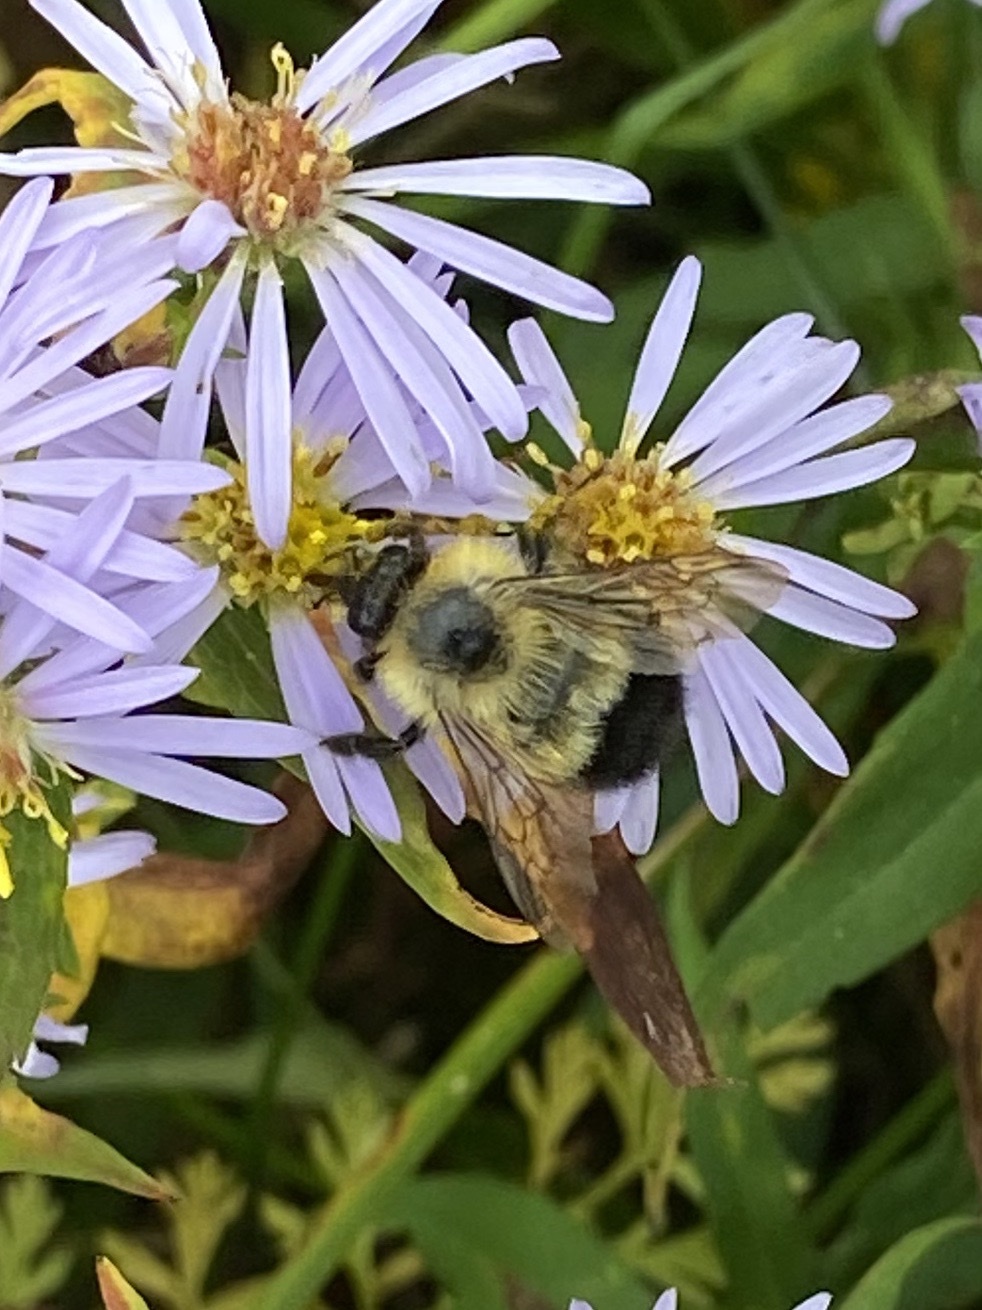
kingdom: Animalia
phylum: Arthropoda
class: Insecta
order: Hymenoptera
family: Apidae
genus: Pyrobombus
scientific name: Pyrobombus
